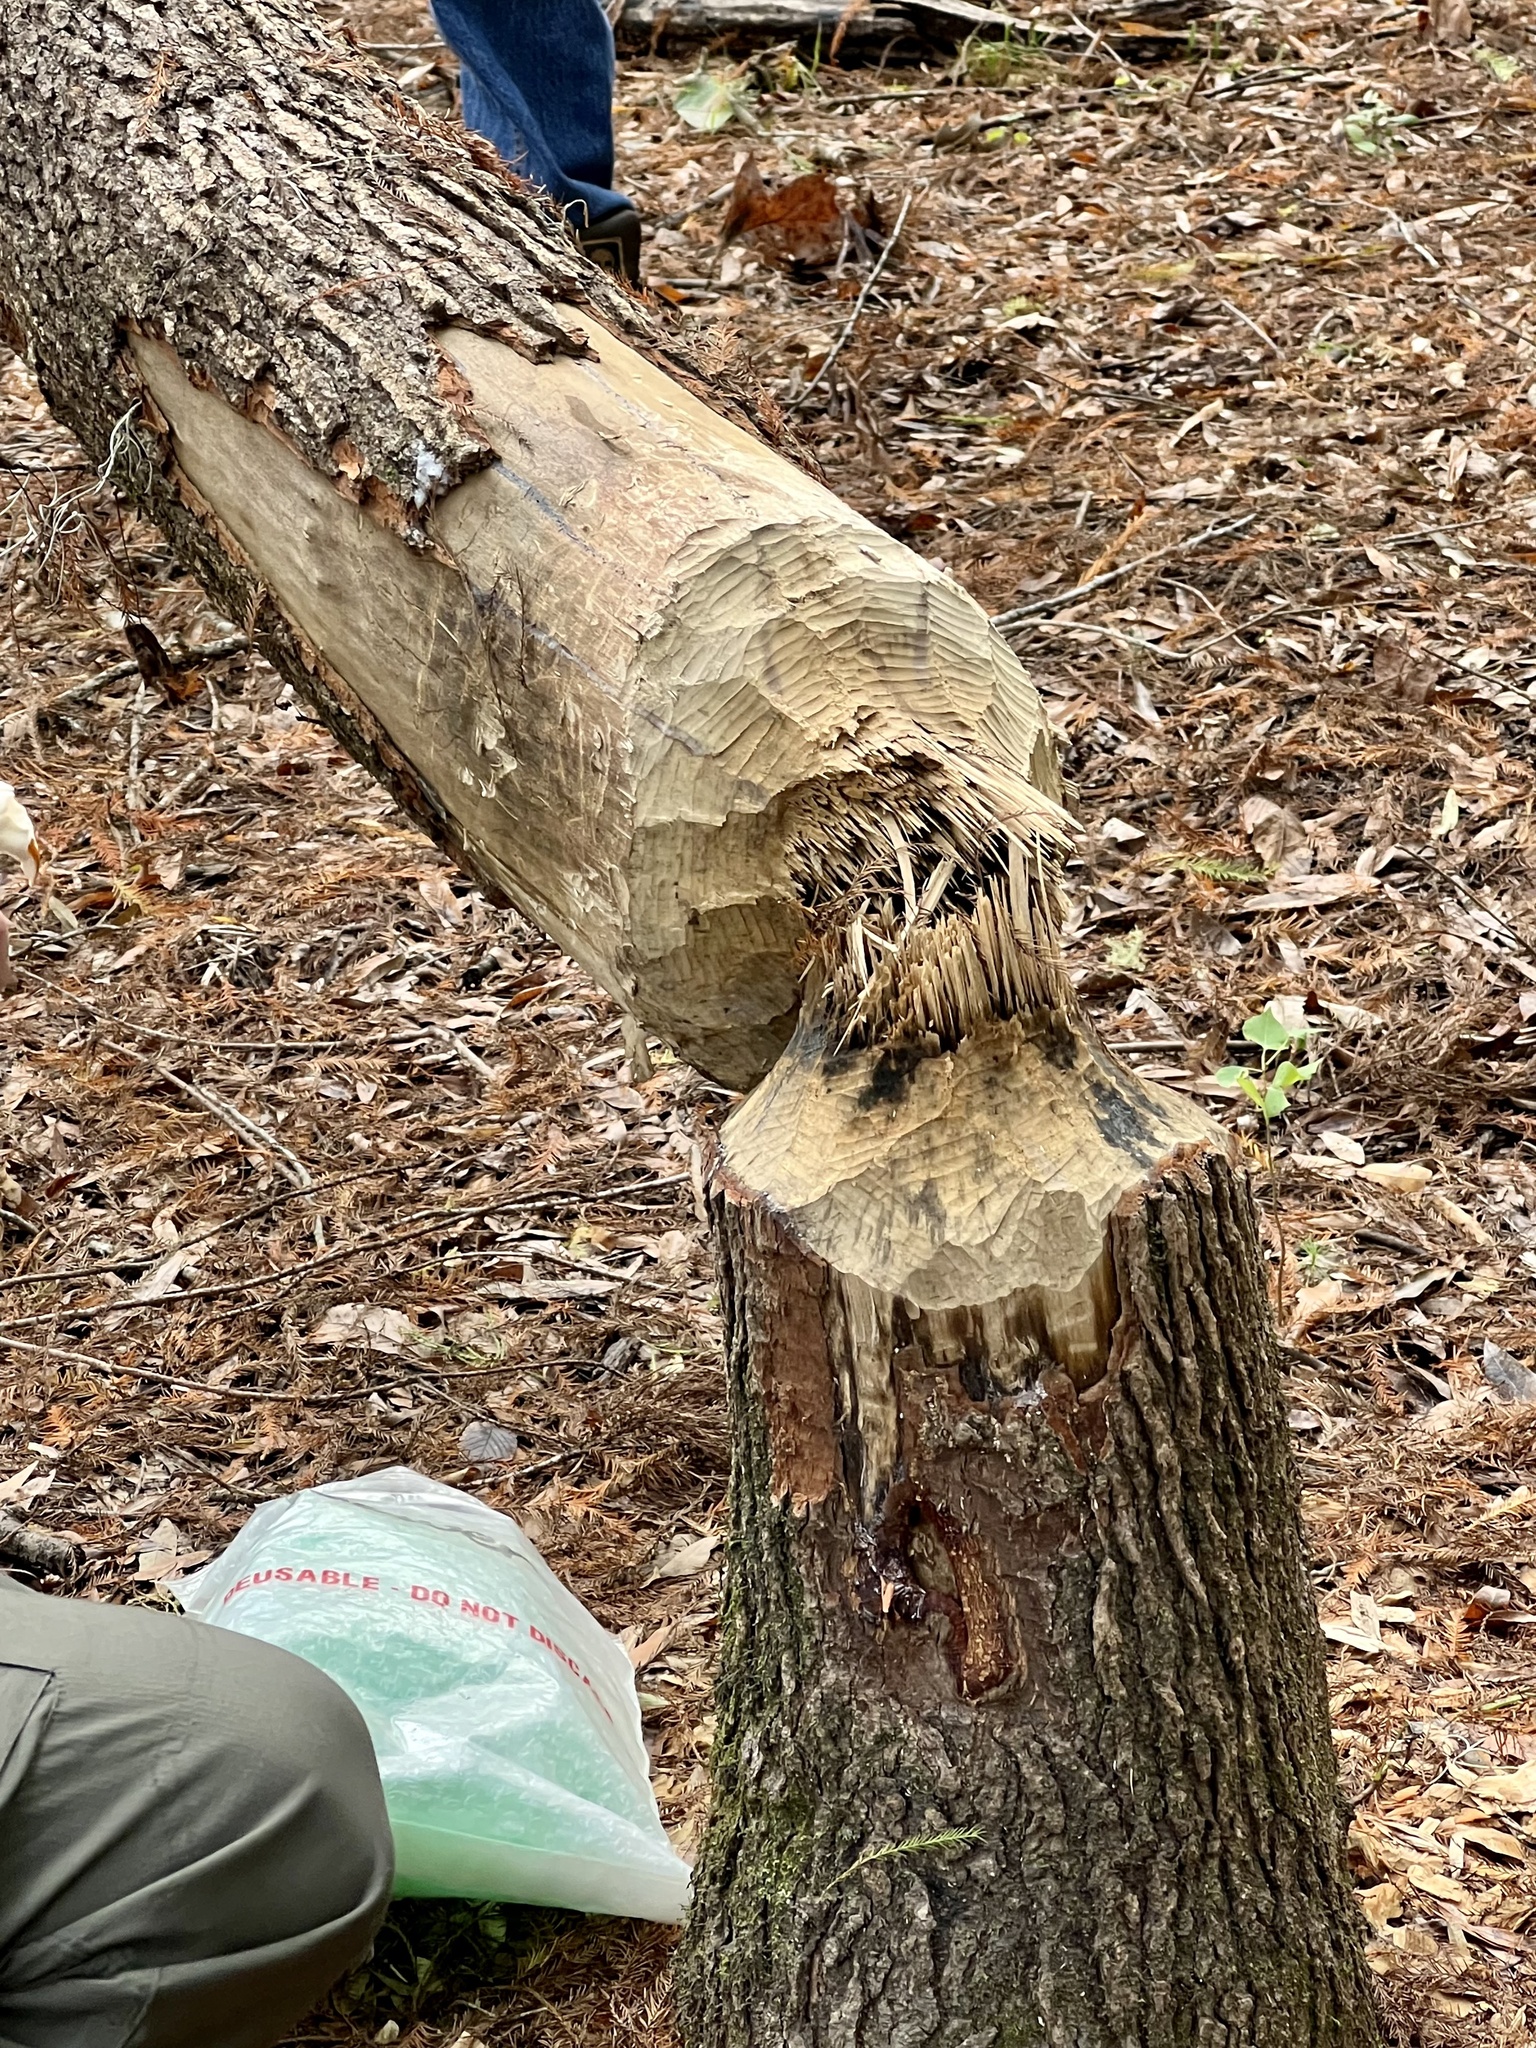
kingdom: Animalia
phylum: Chordata
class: Mammalia
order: Rodentia
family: Castoridae
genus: Castor
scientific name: Castor canadensis
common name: American beaver
